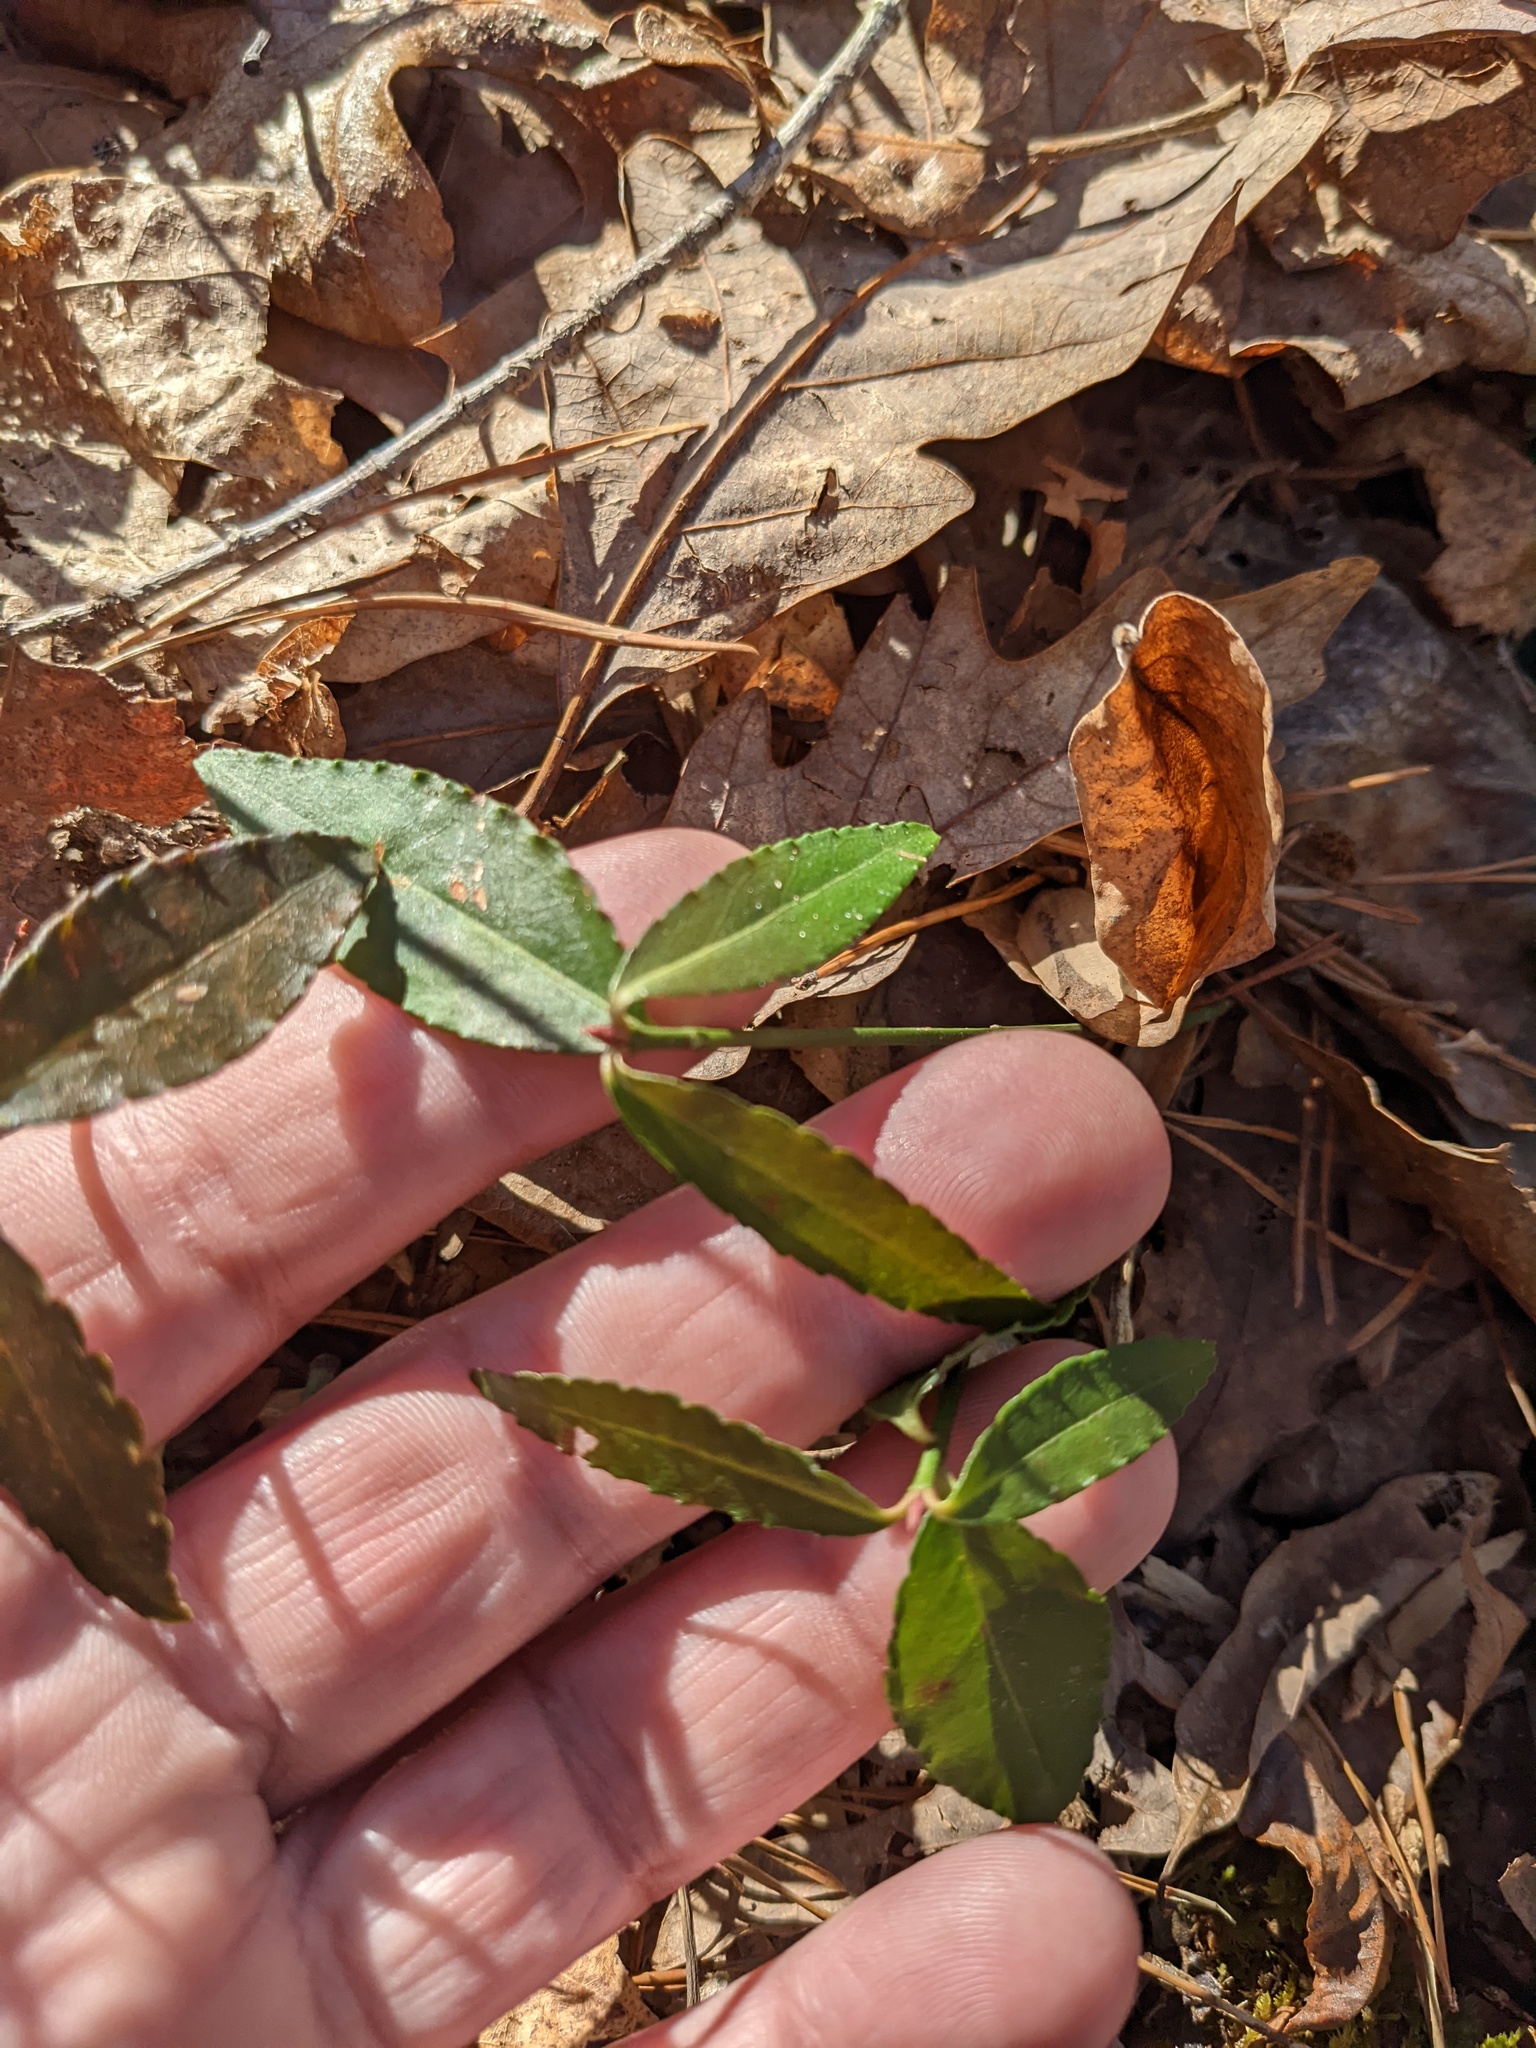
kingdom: Plantae
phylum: Tracheophyta
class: Magnoliopsida
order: Celastrales
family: Celastraceae
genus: Euonymus
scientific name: Euonymus americanus
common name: Bursting-heart
